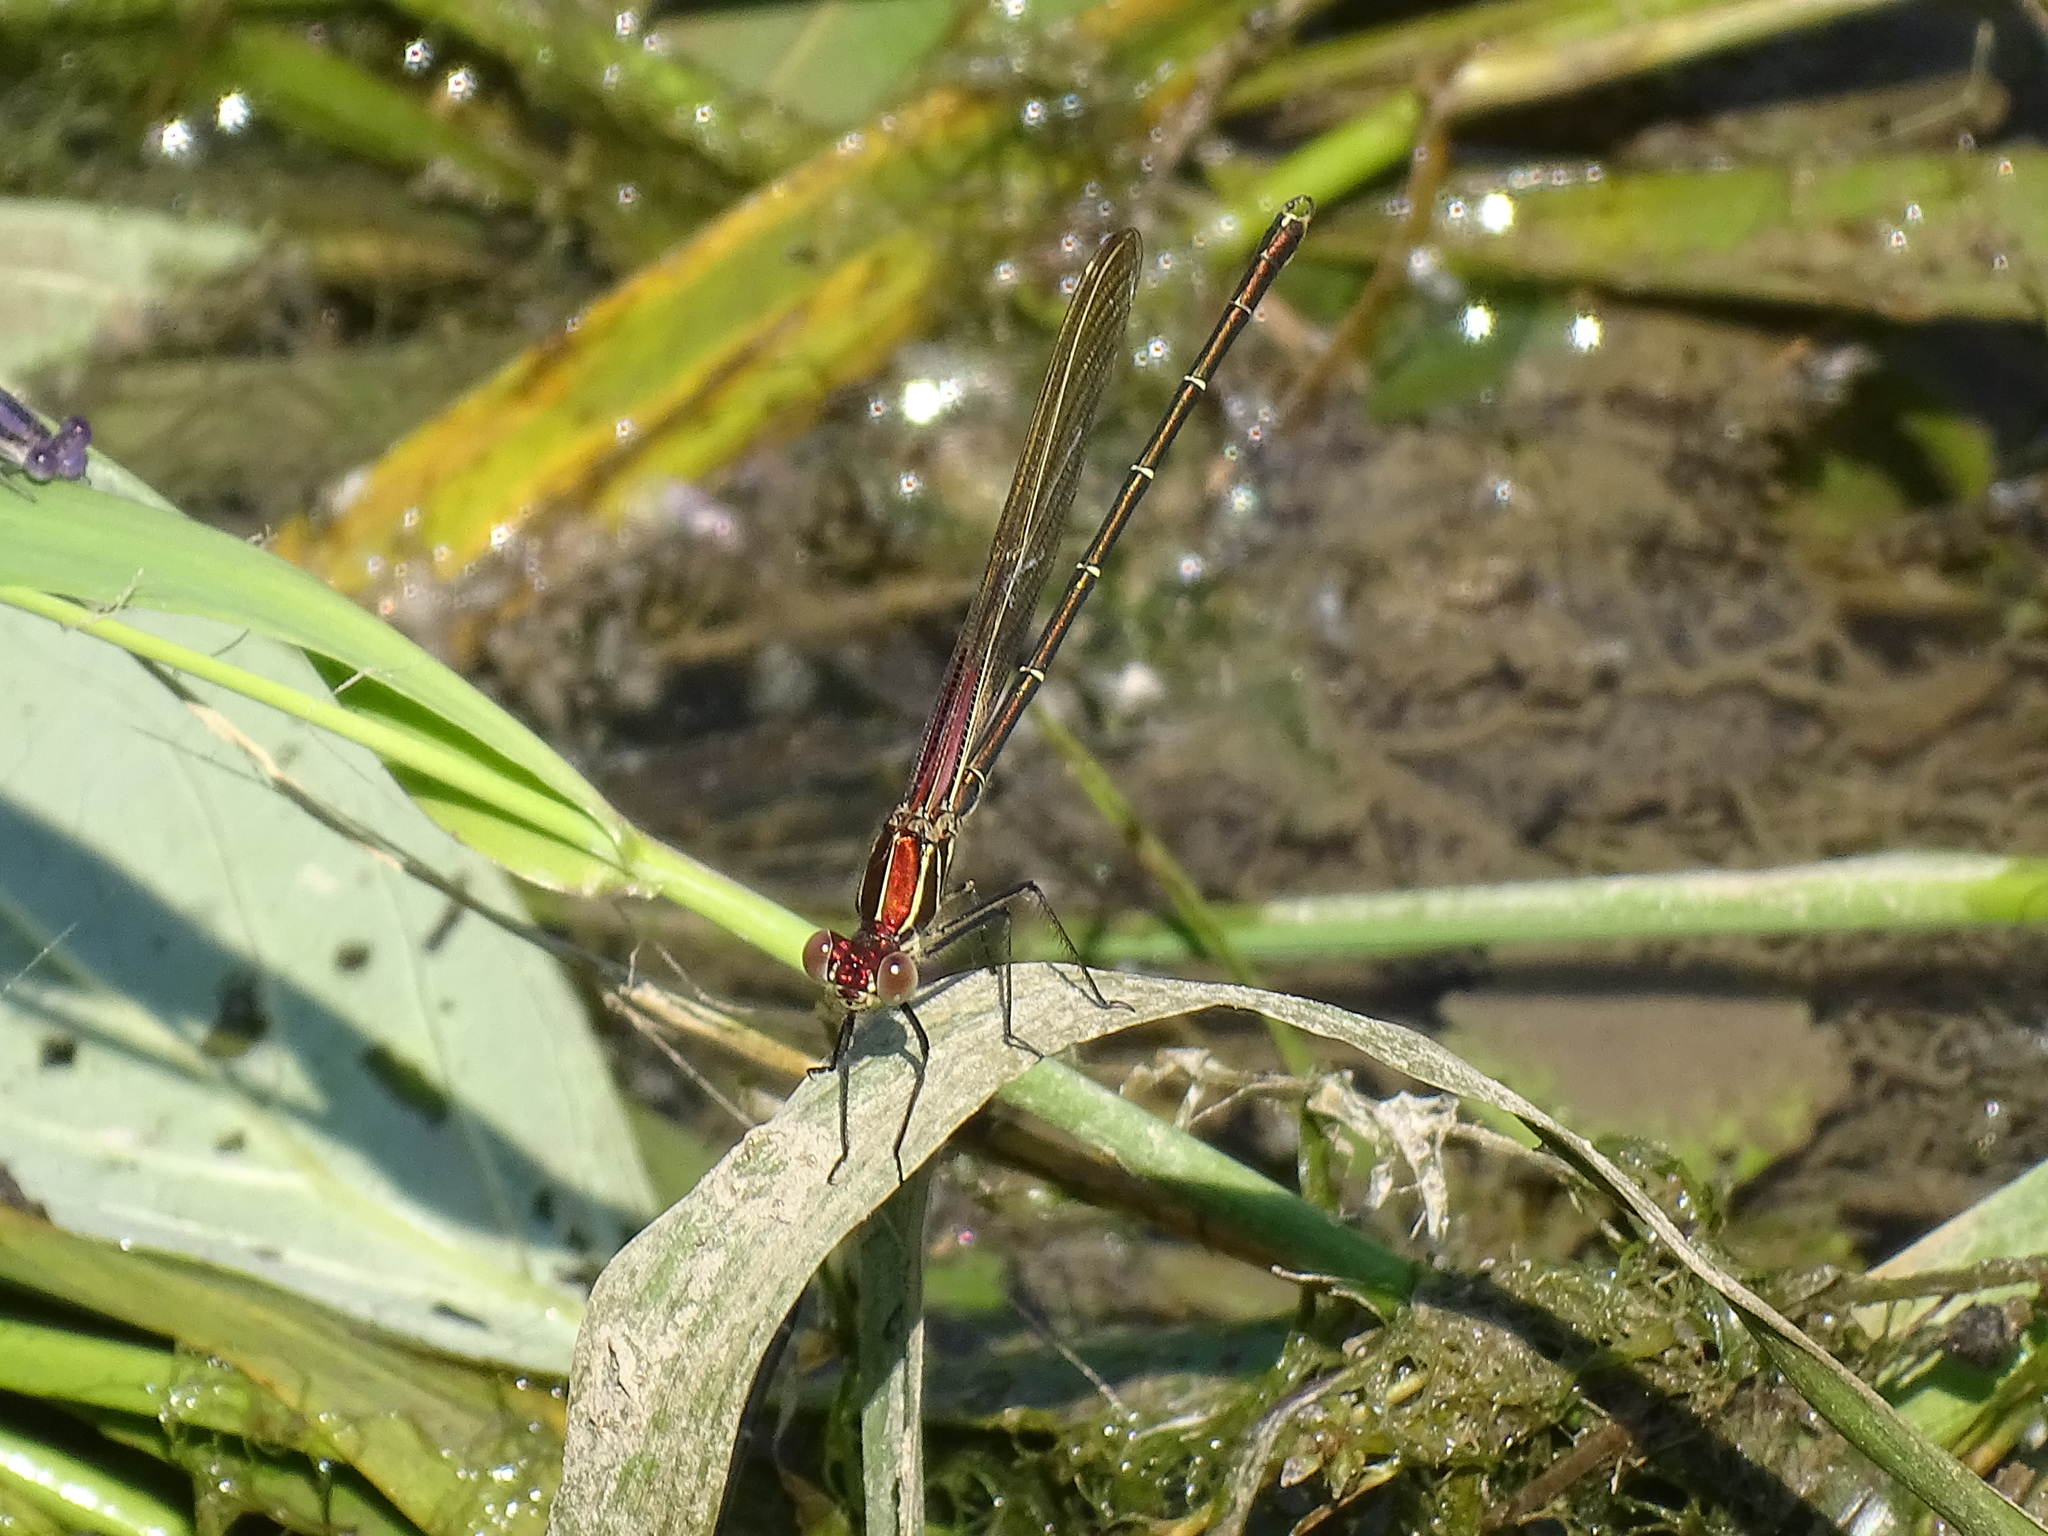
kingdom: Animalia
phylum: Arthropoda
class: Insecta
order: Odonata
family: Calopterygidae
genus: Hetaerina
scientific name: Hetaerina americana
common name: American rubyspot
